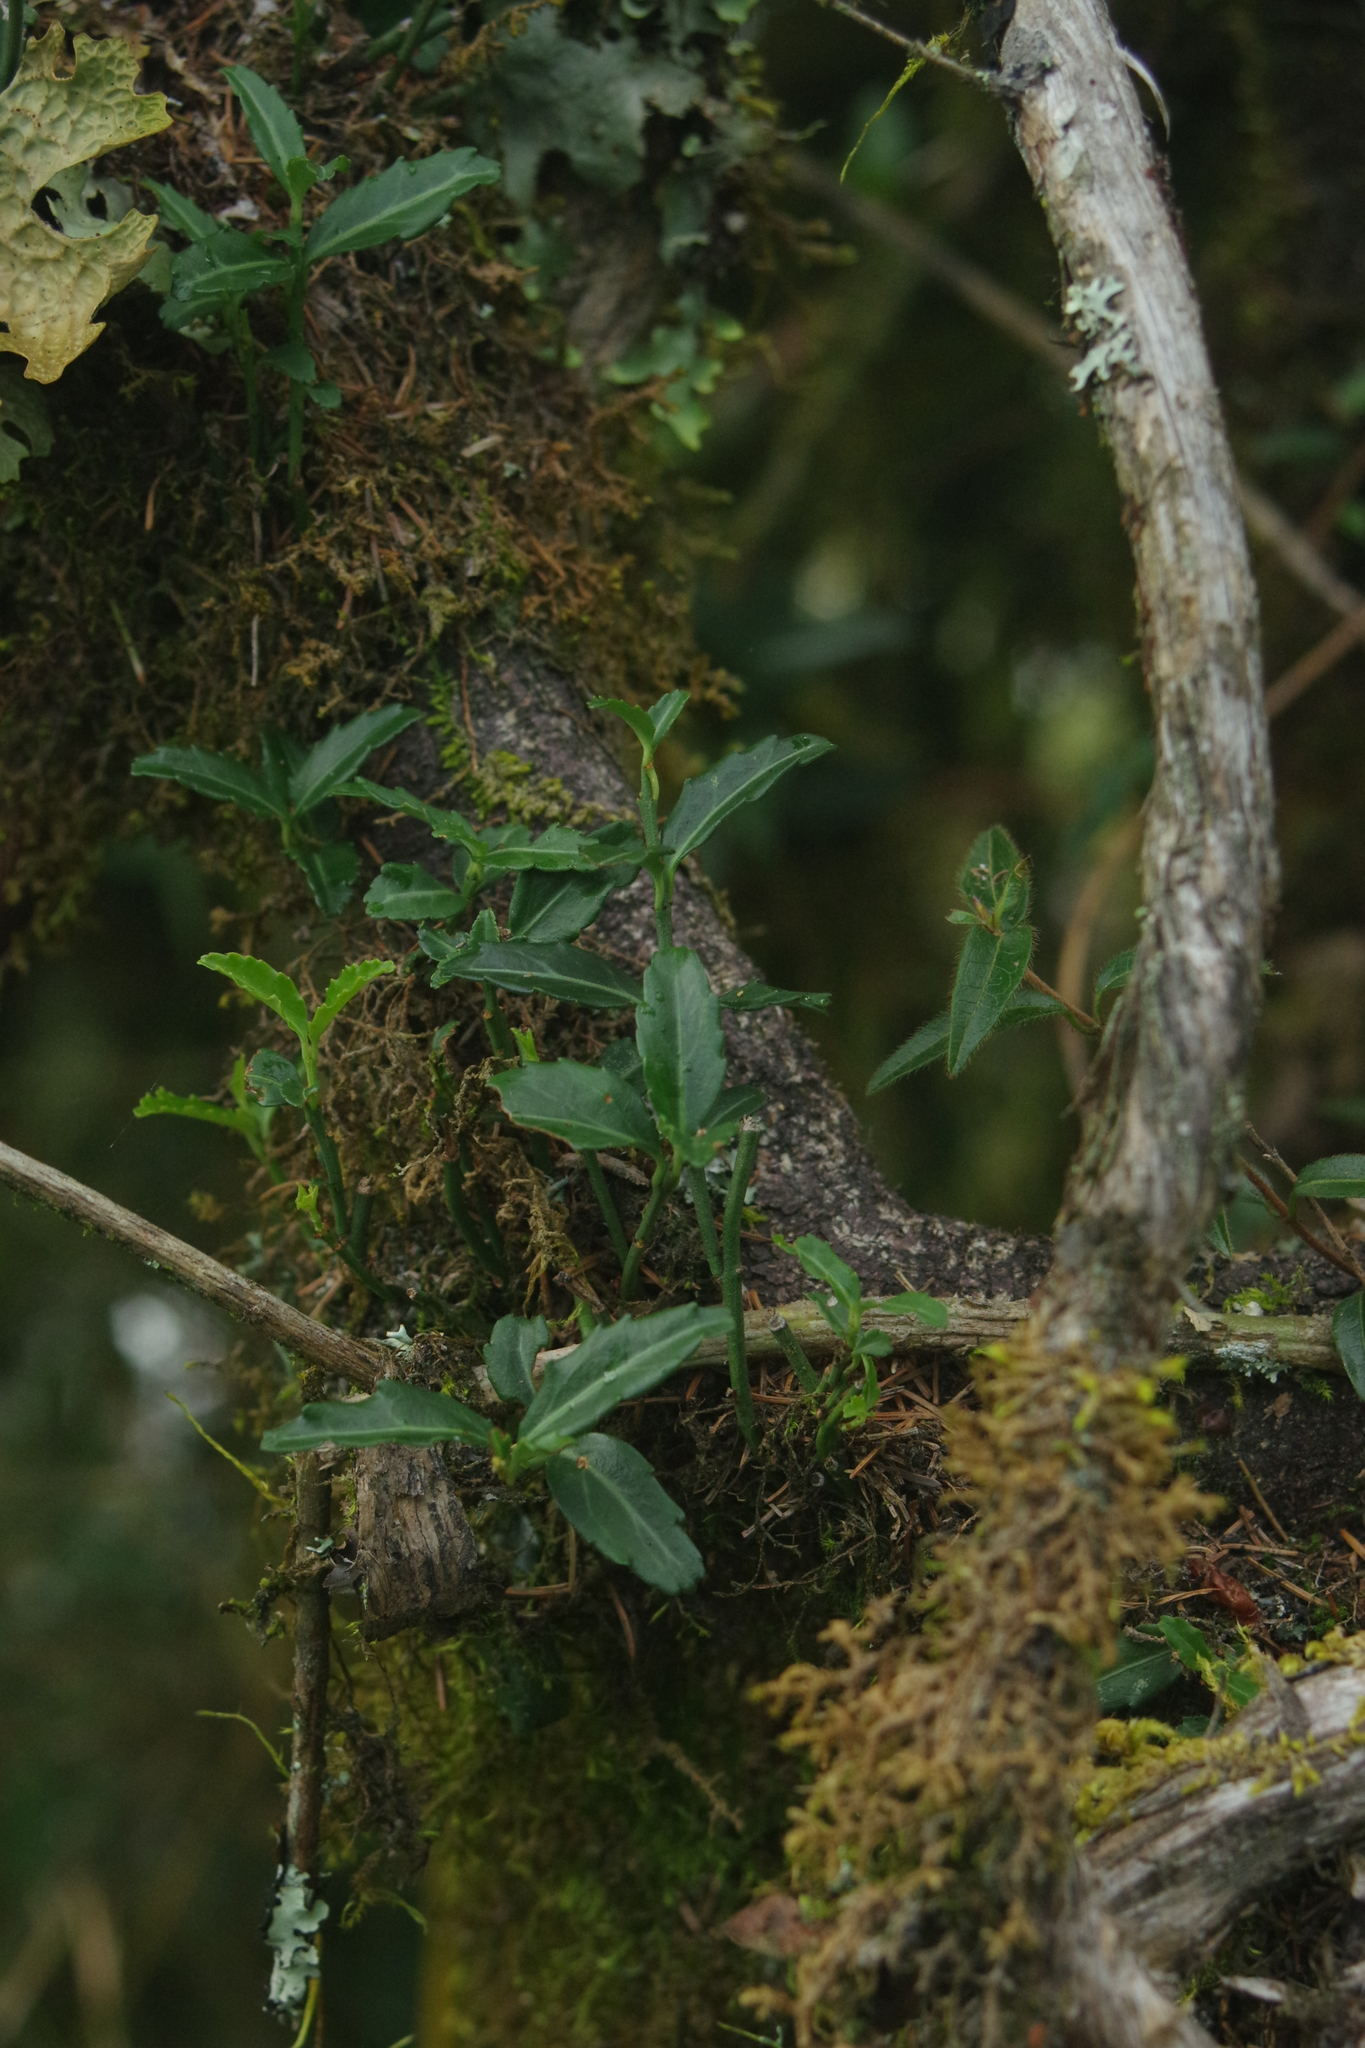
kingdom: Plantae
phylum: Tracheophyta
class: Magnoliopsida
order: Celastrales
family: Celastraceae
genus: Euonymus
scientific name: Euonymus spraguei
